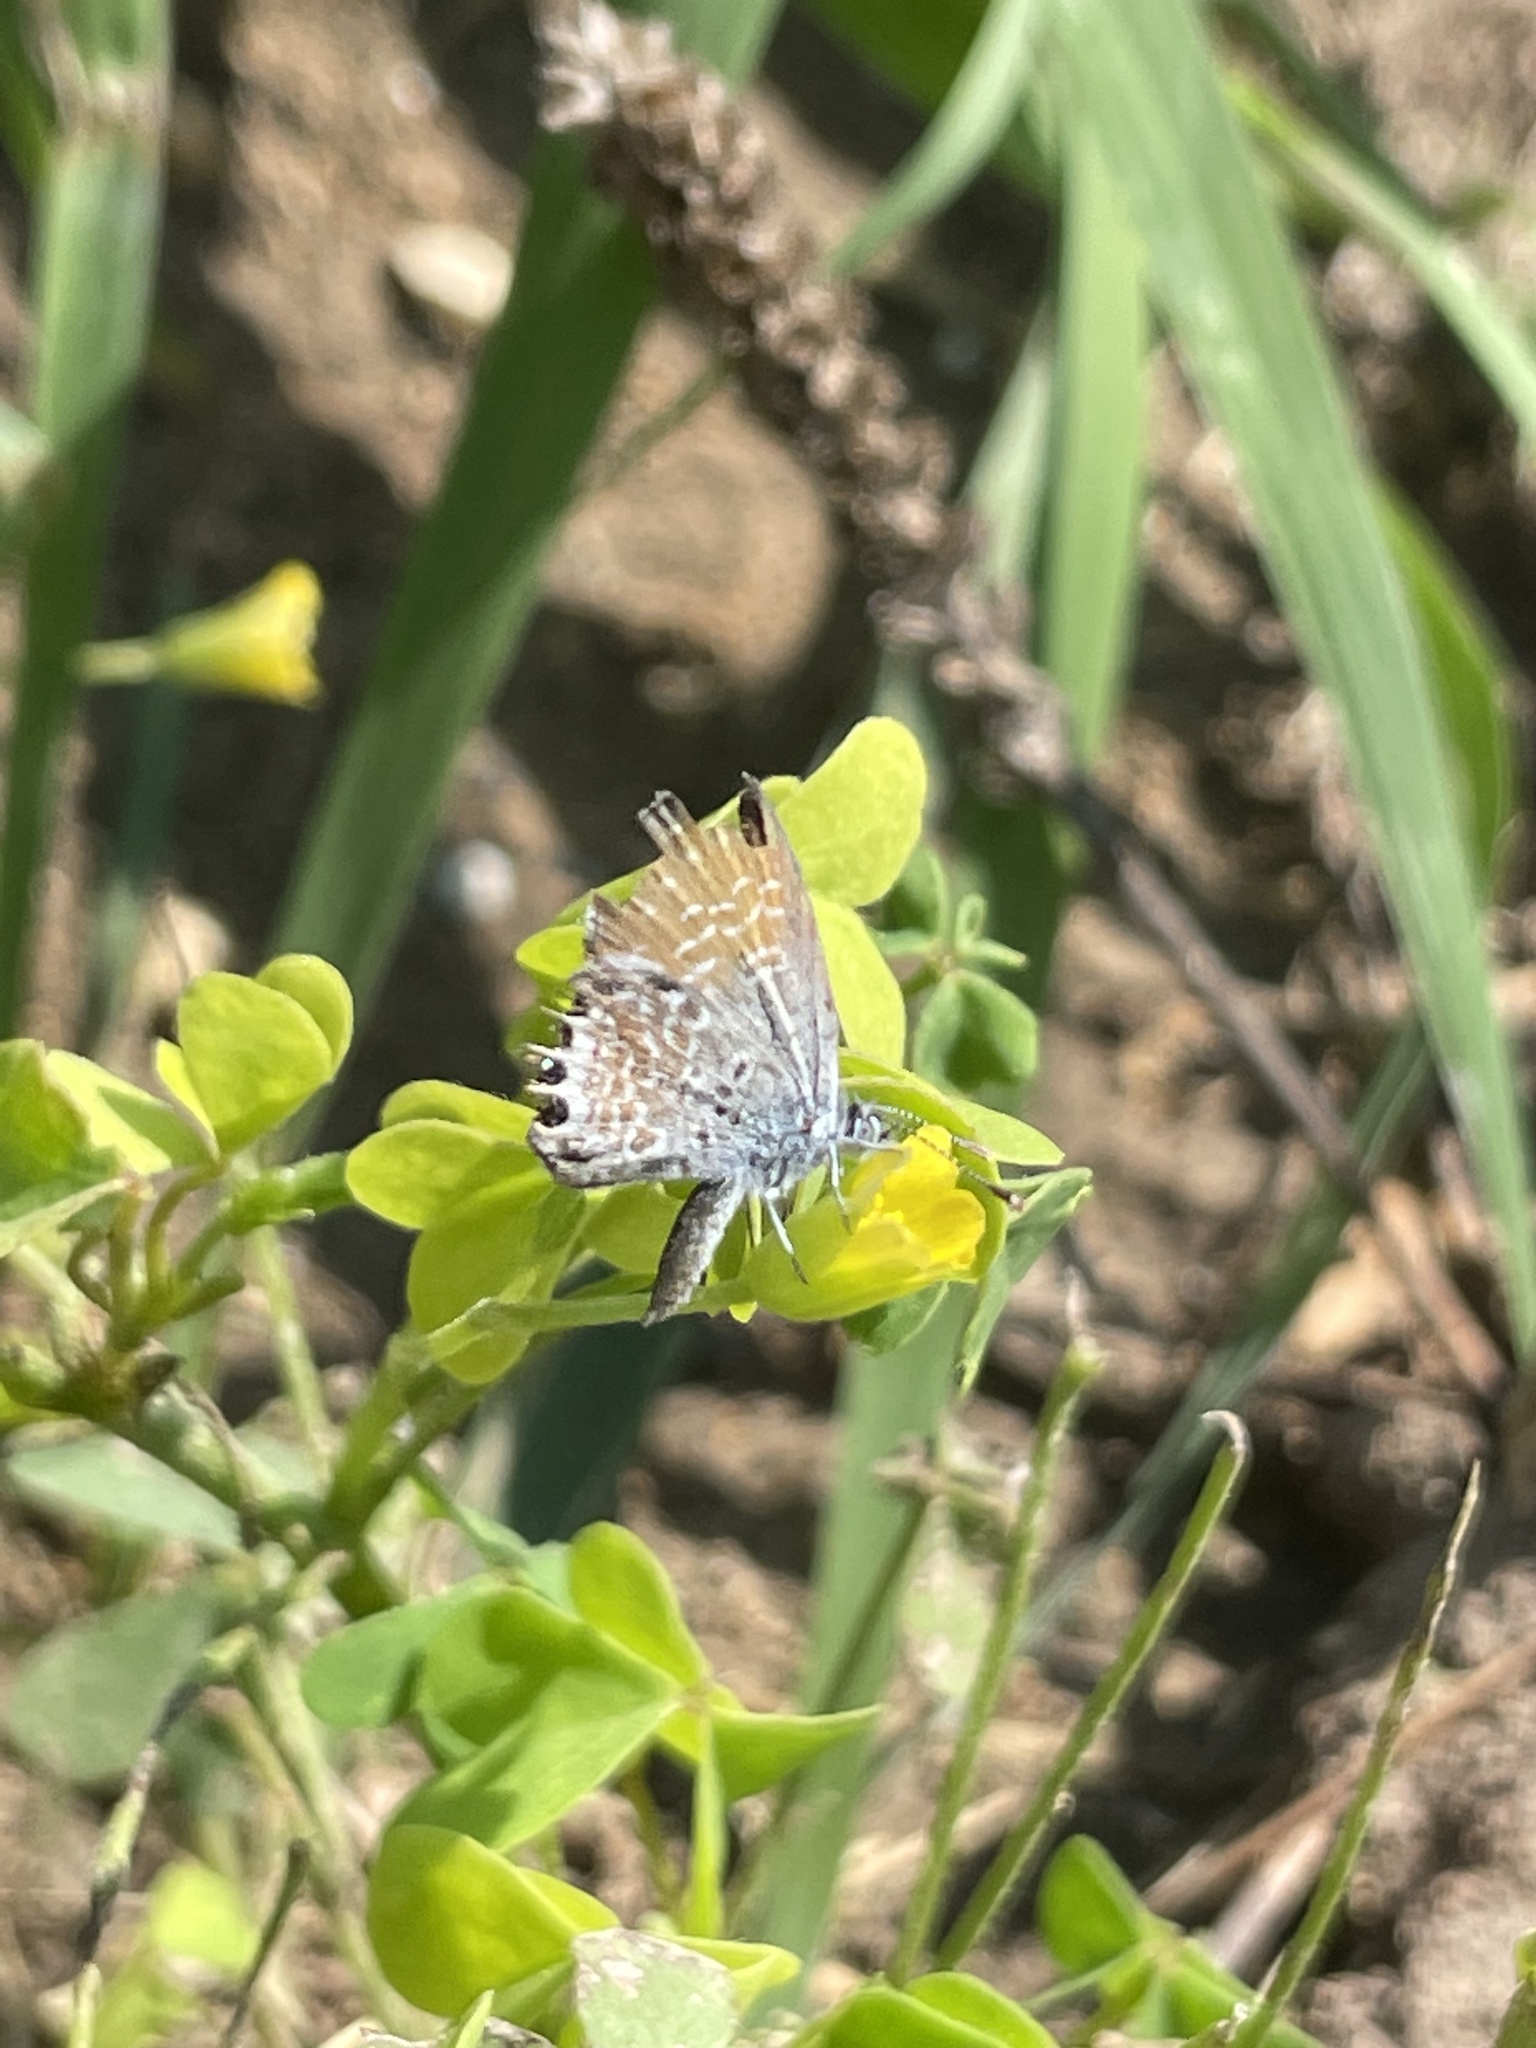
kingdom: Animalia
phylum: Arthropoda
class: Insecta
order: Lepidoptera
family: Lycaenidae
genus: Brephidium
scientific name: Brephidium exilis
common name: Pygmy blue
